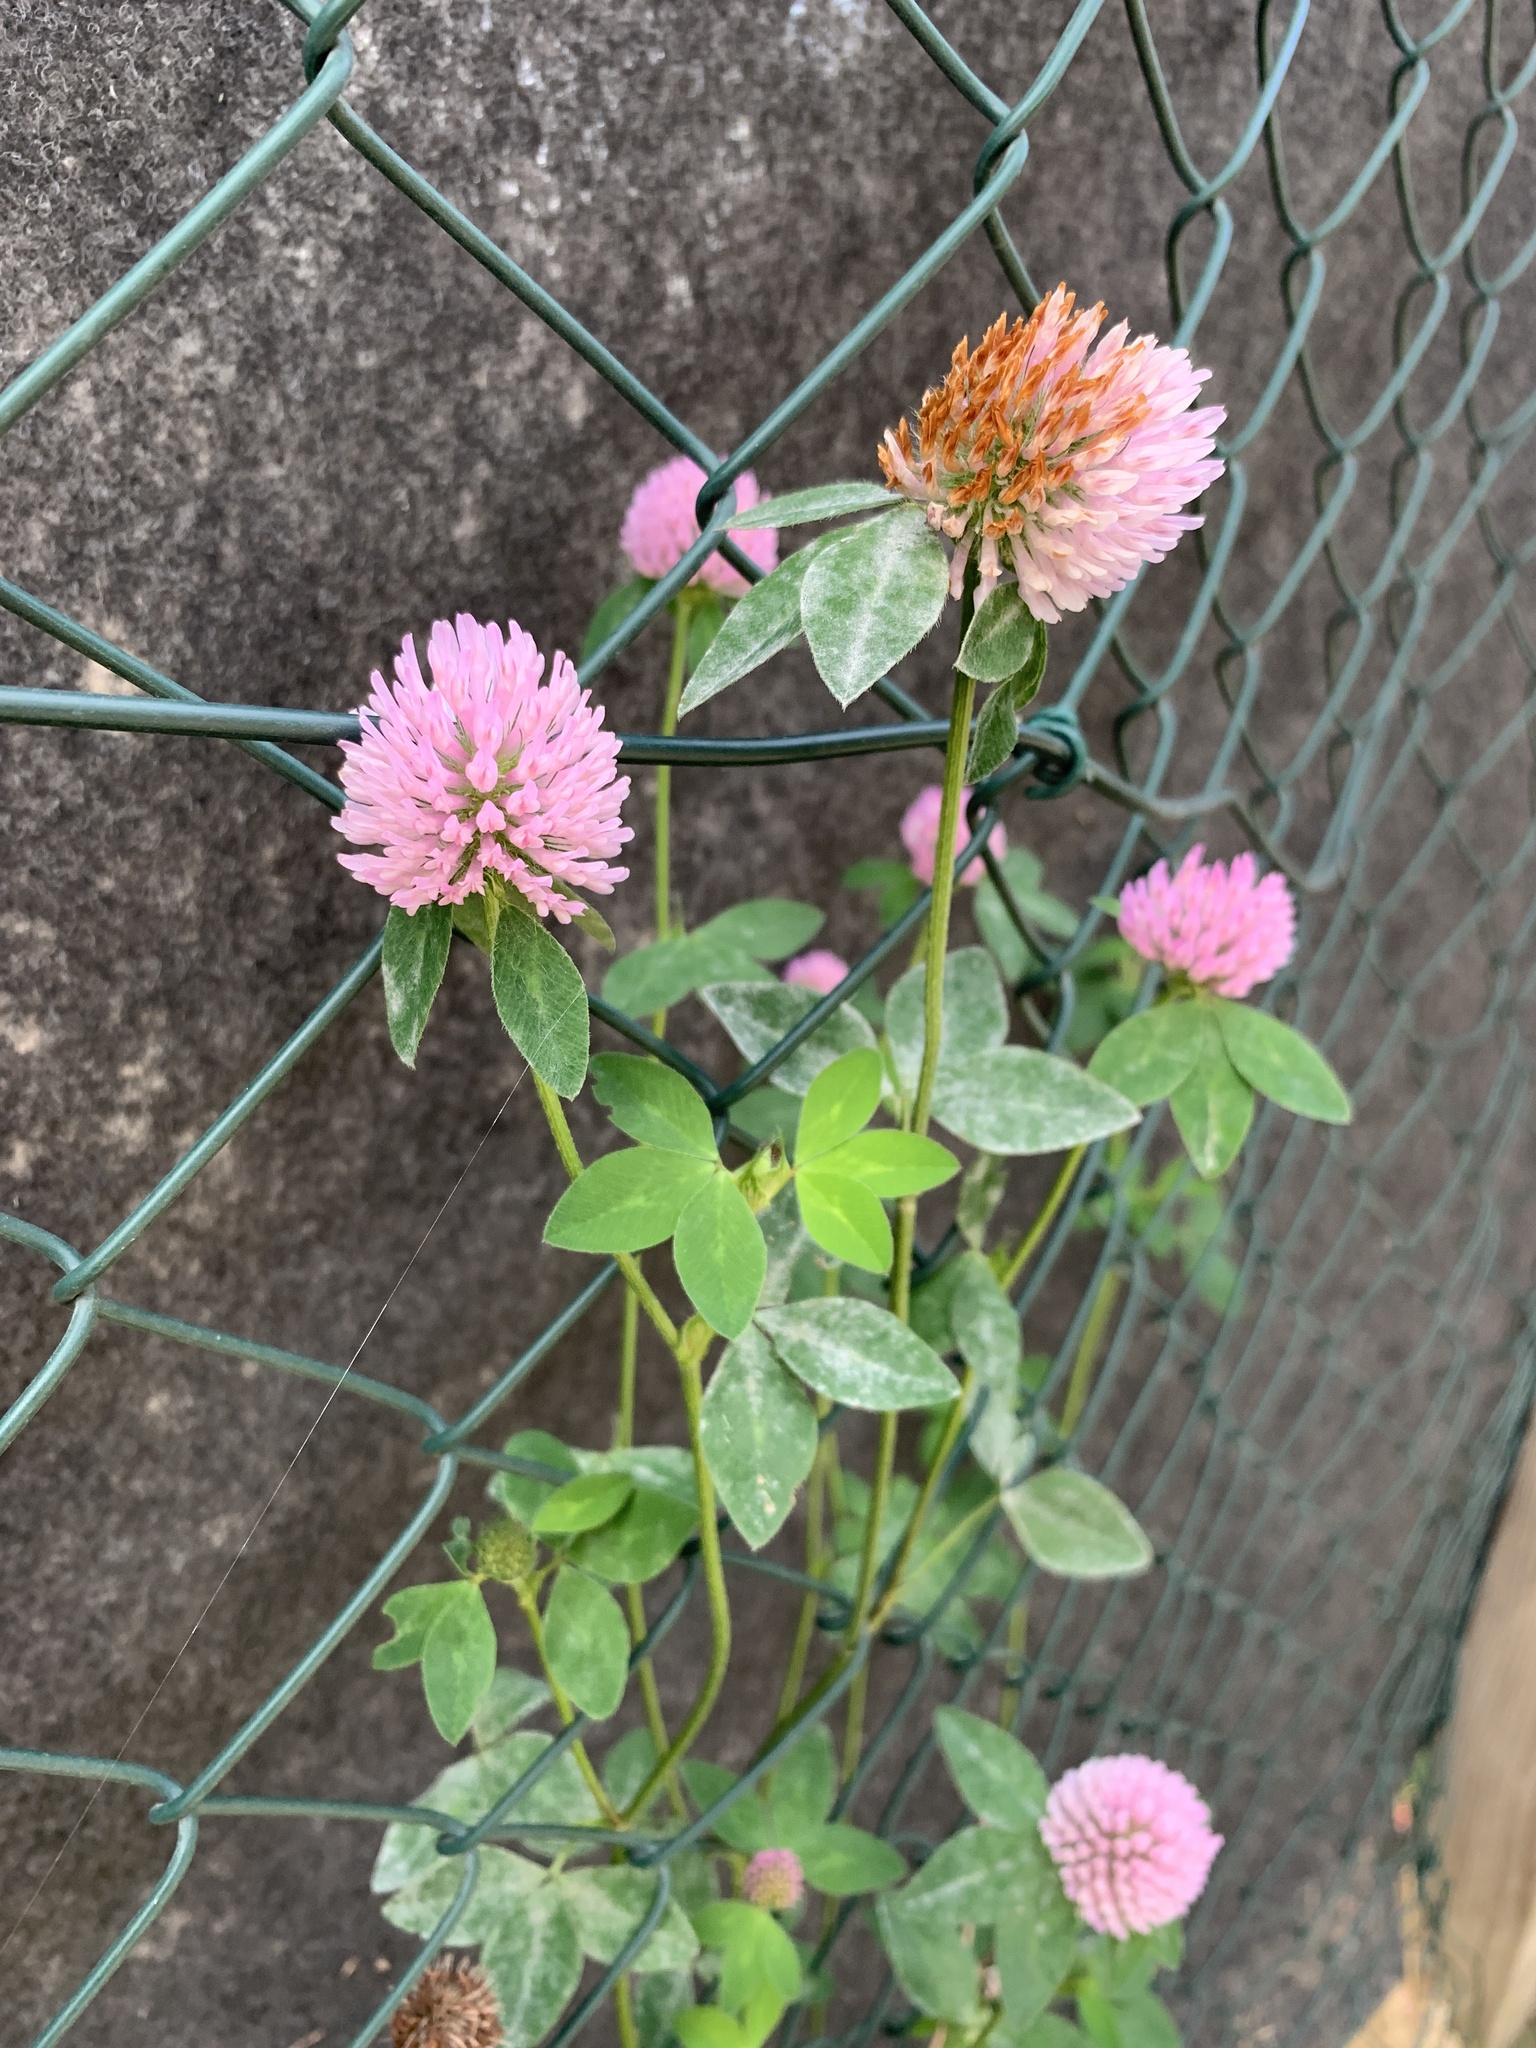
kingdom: Plantae
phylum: Tracheophyta
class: Magnoliopsida
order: Fabales
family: Fabaceae
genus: Trifolium
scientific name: Trifolium pratense
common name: Red clover
